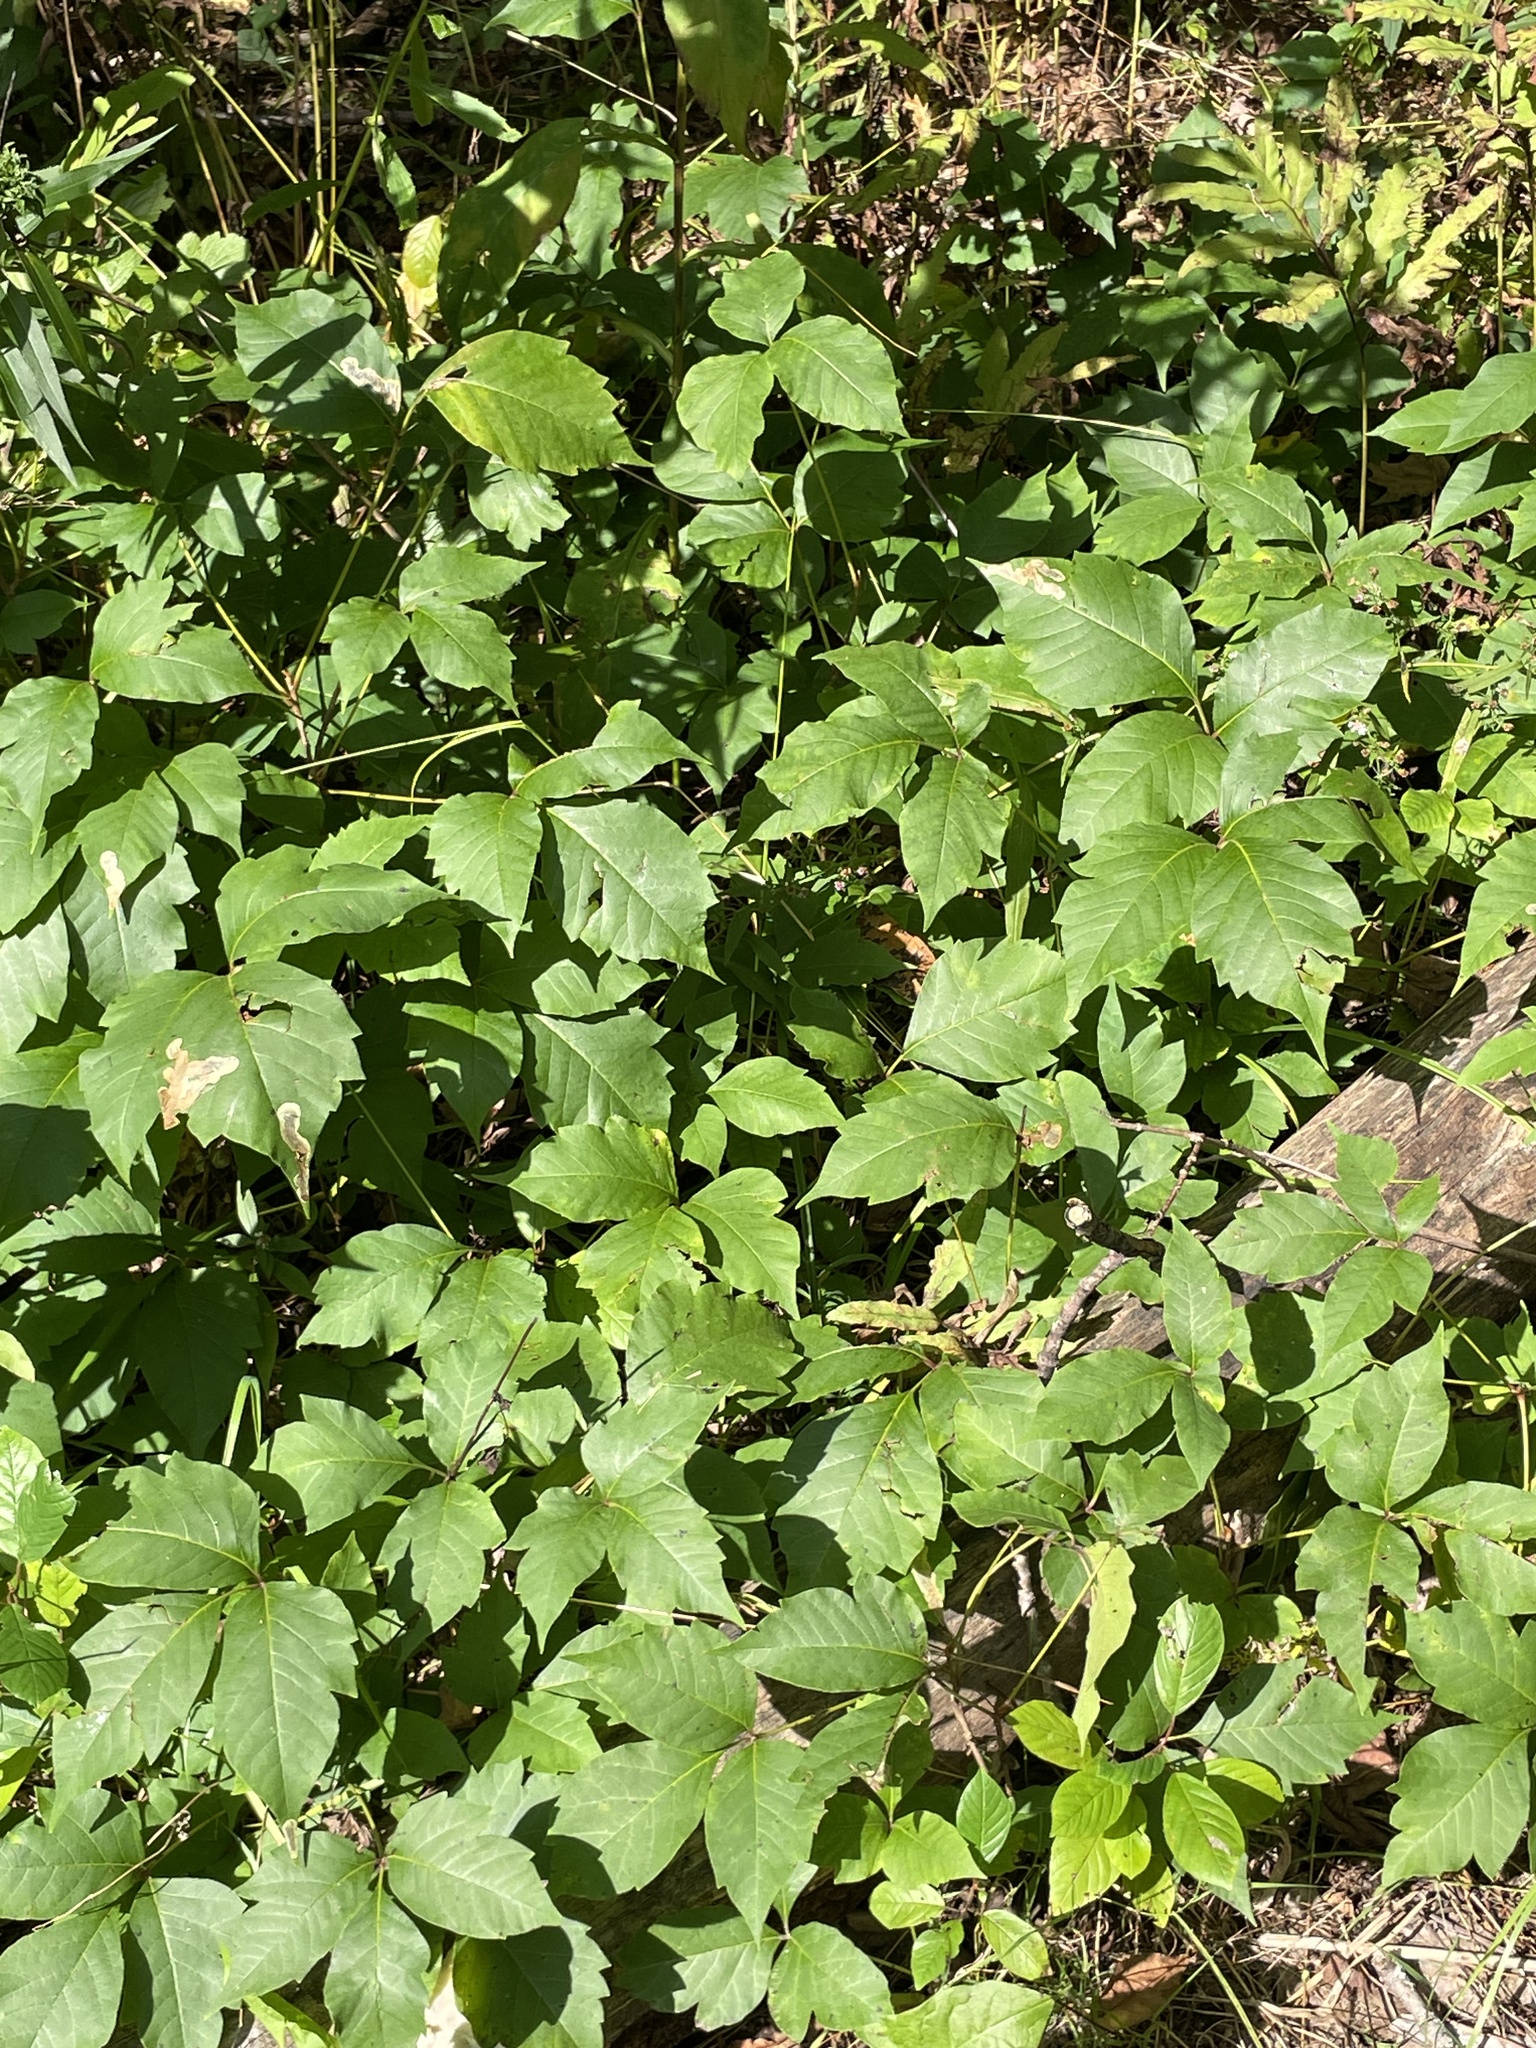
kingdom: Plantae
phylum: Tracheophyta
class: Magnoliopsida
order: Sapindales
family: Anacardiaceae
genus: Toxicodendron
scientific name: Toxicodendron radicans
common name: Poison ivy
